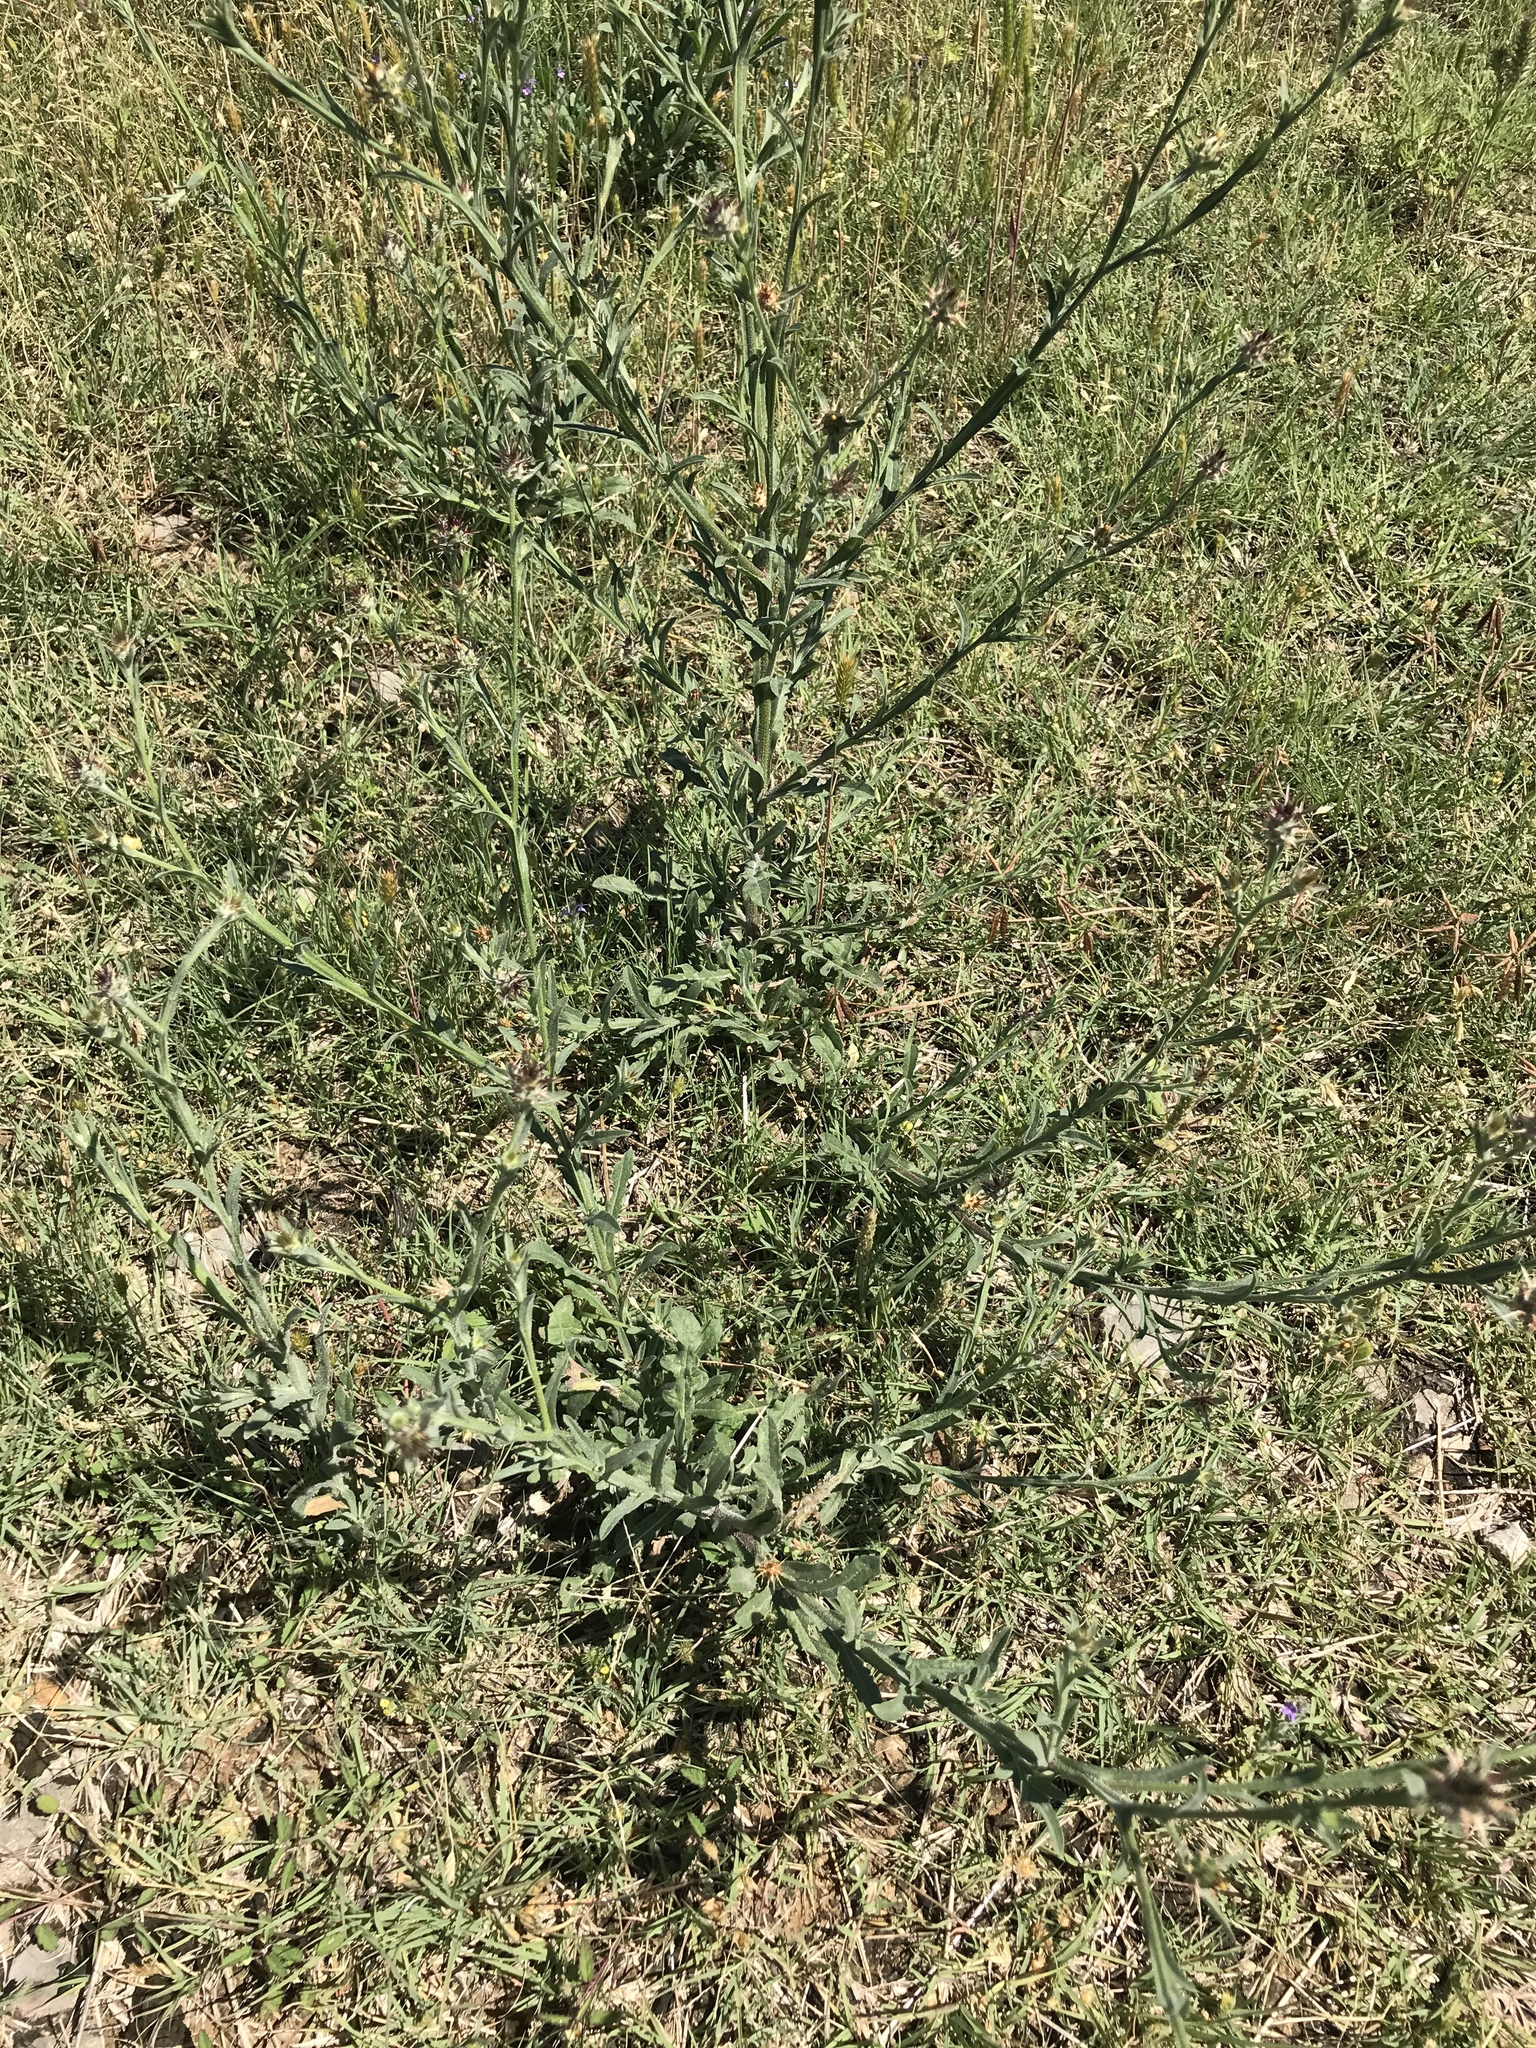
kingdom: Plantae
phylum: Tracheophyta
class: Magnoliopsida
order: Asterales
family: Asteraceae
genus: Centaurea
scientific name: Centaurea melitensis
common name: Maltese star-thistle
